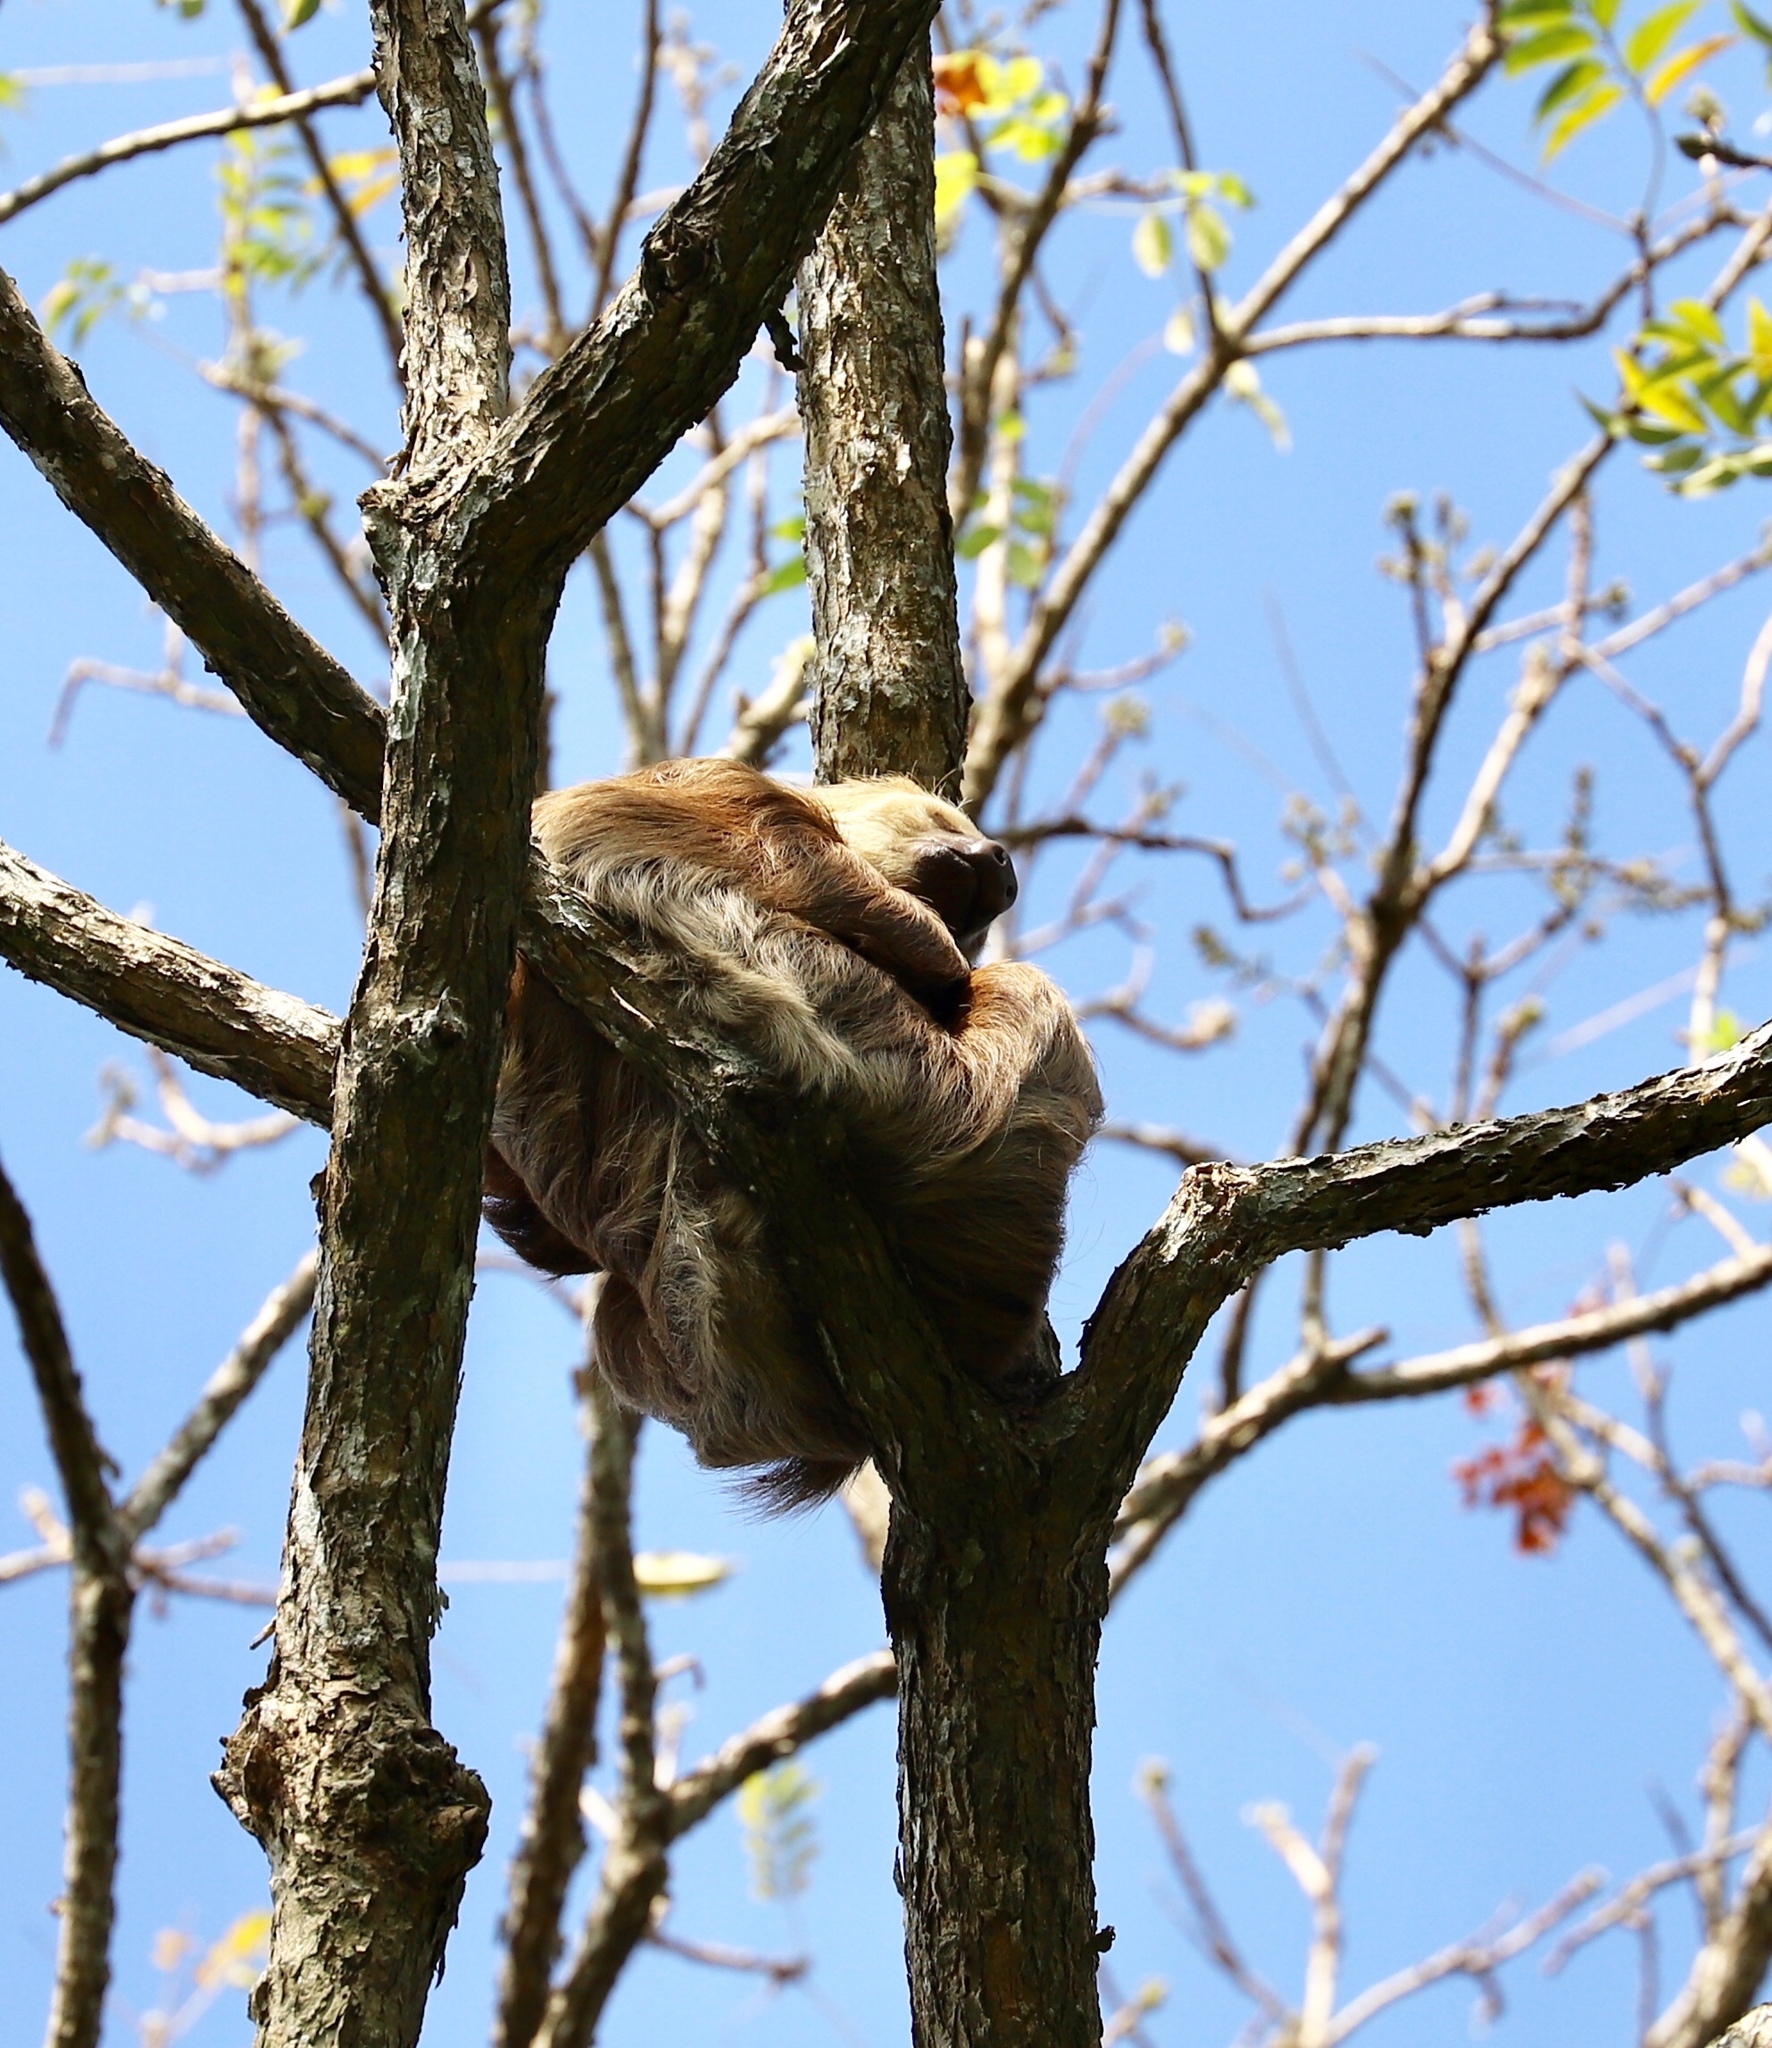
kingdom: Animalia
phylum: Chordata
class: Mammalia
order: Pilosa
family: Megalonychidae
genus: Choloepus
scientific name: Choloepus hoffmanni
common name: Hoffmann's two-toed sloth
